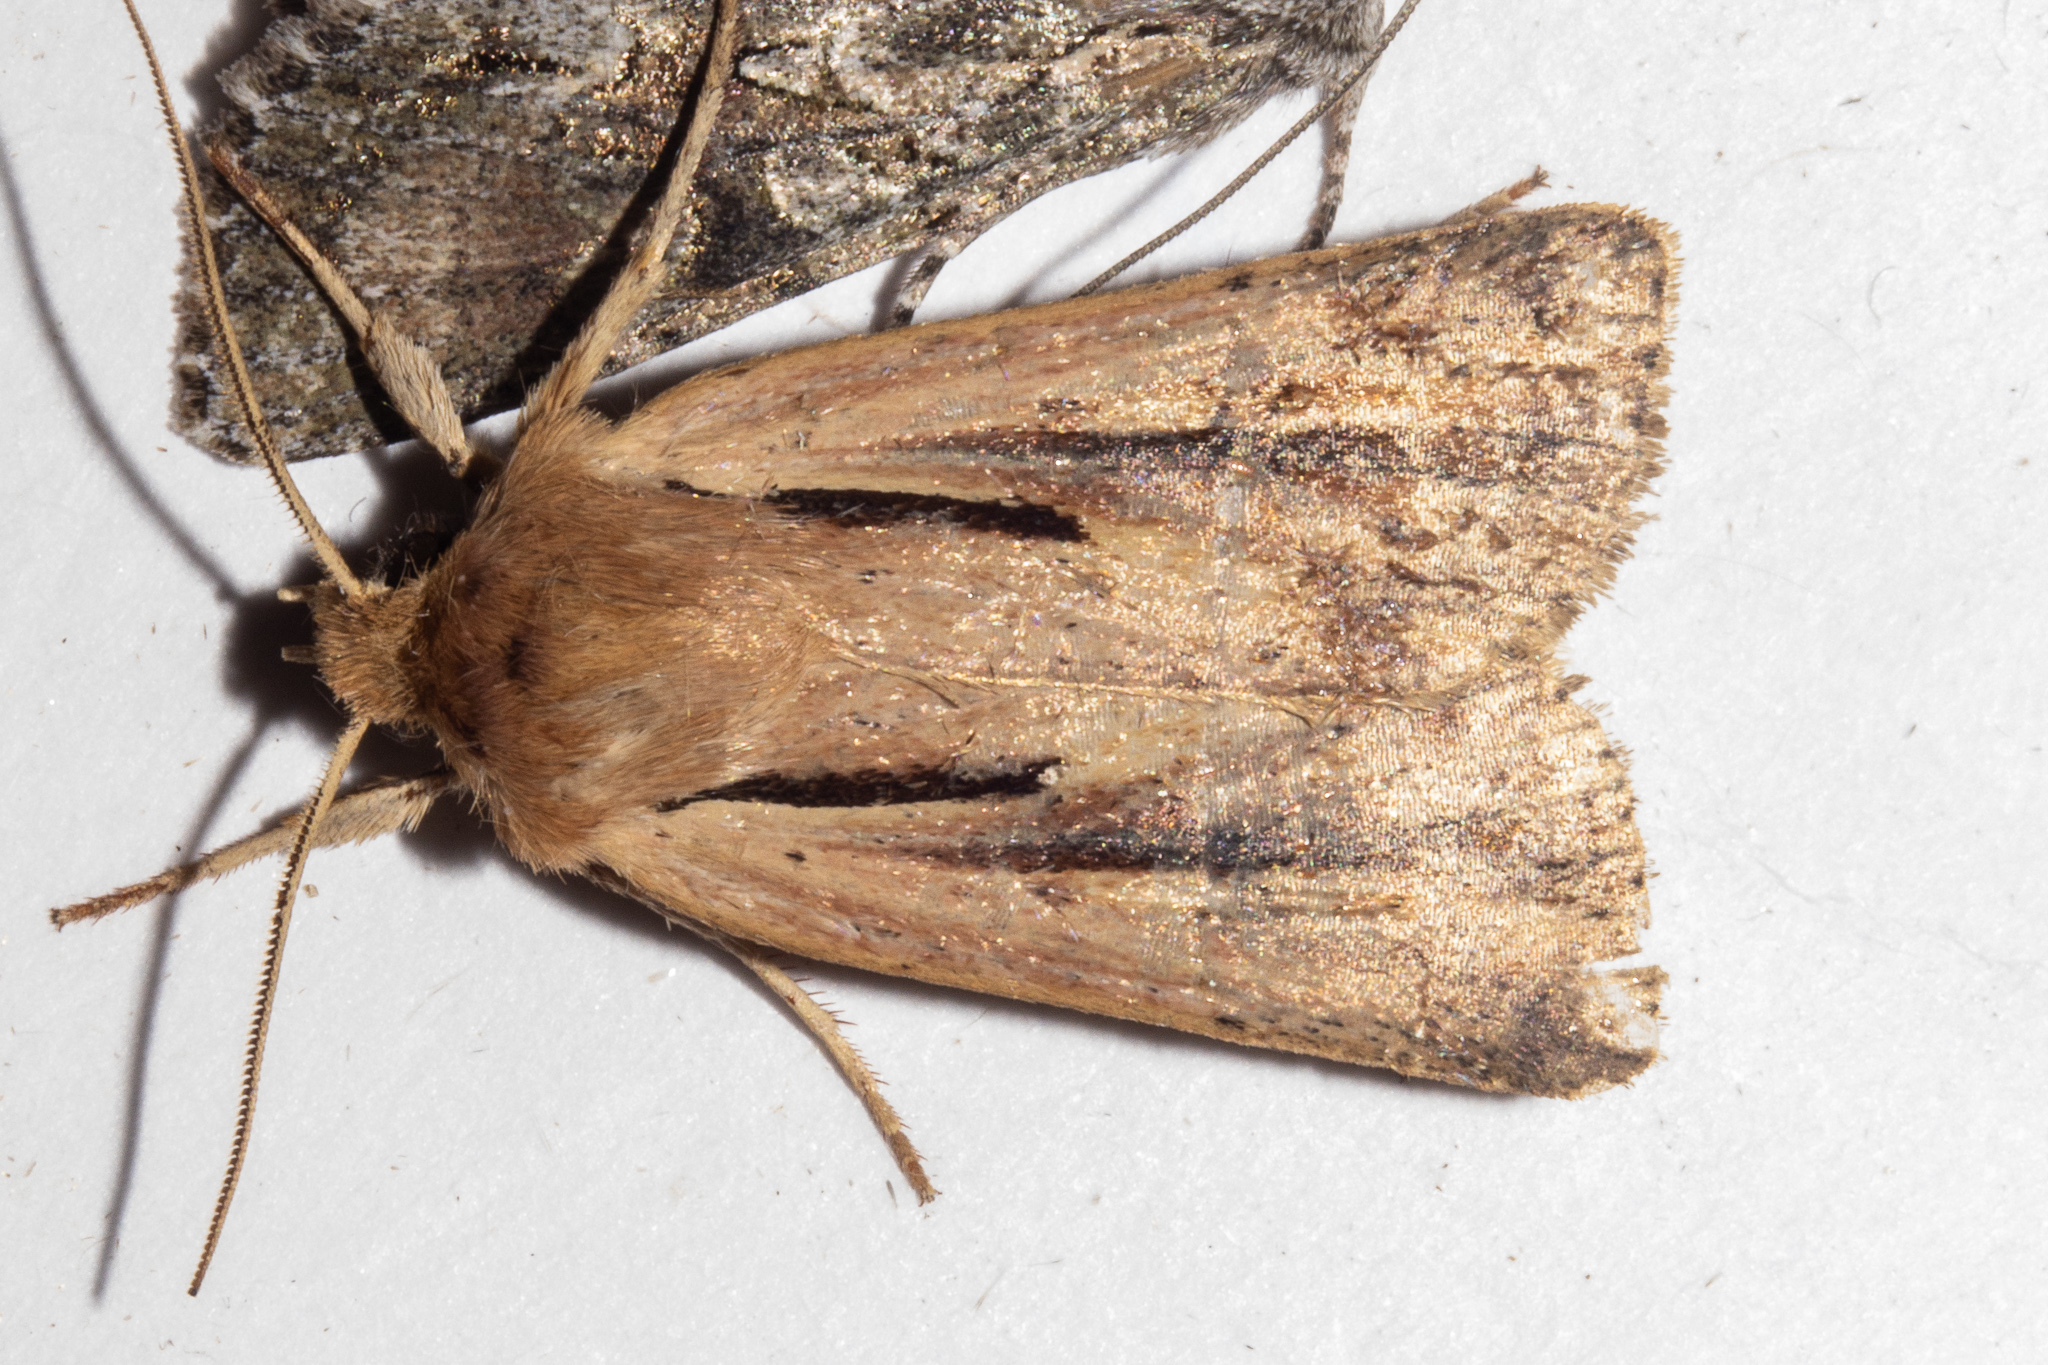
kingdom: Animalia
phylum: Arthropoda
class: Insecta
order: Lepidoptera
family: Noctuidae
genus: Ichneutica
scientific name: Ichneutica propria
